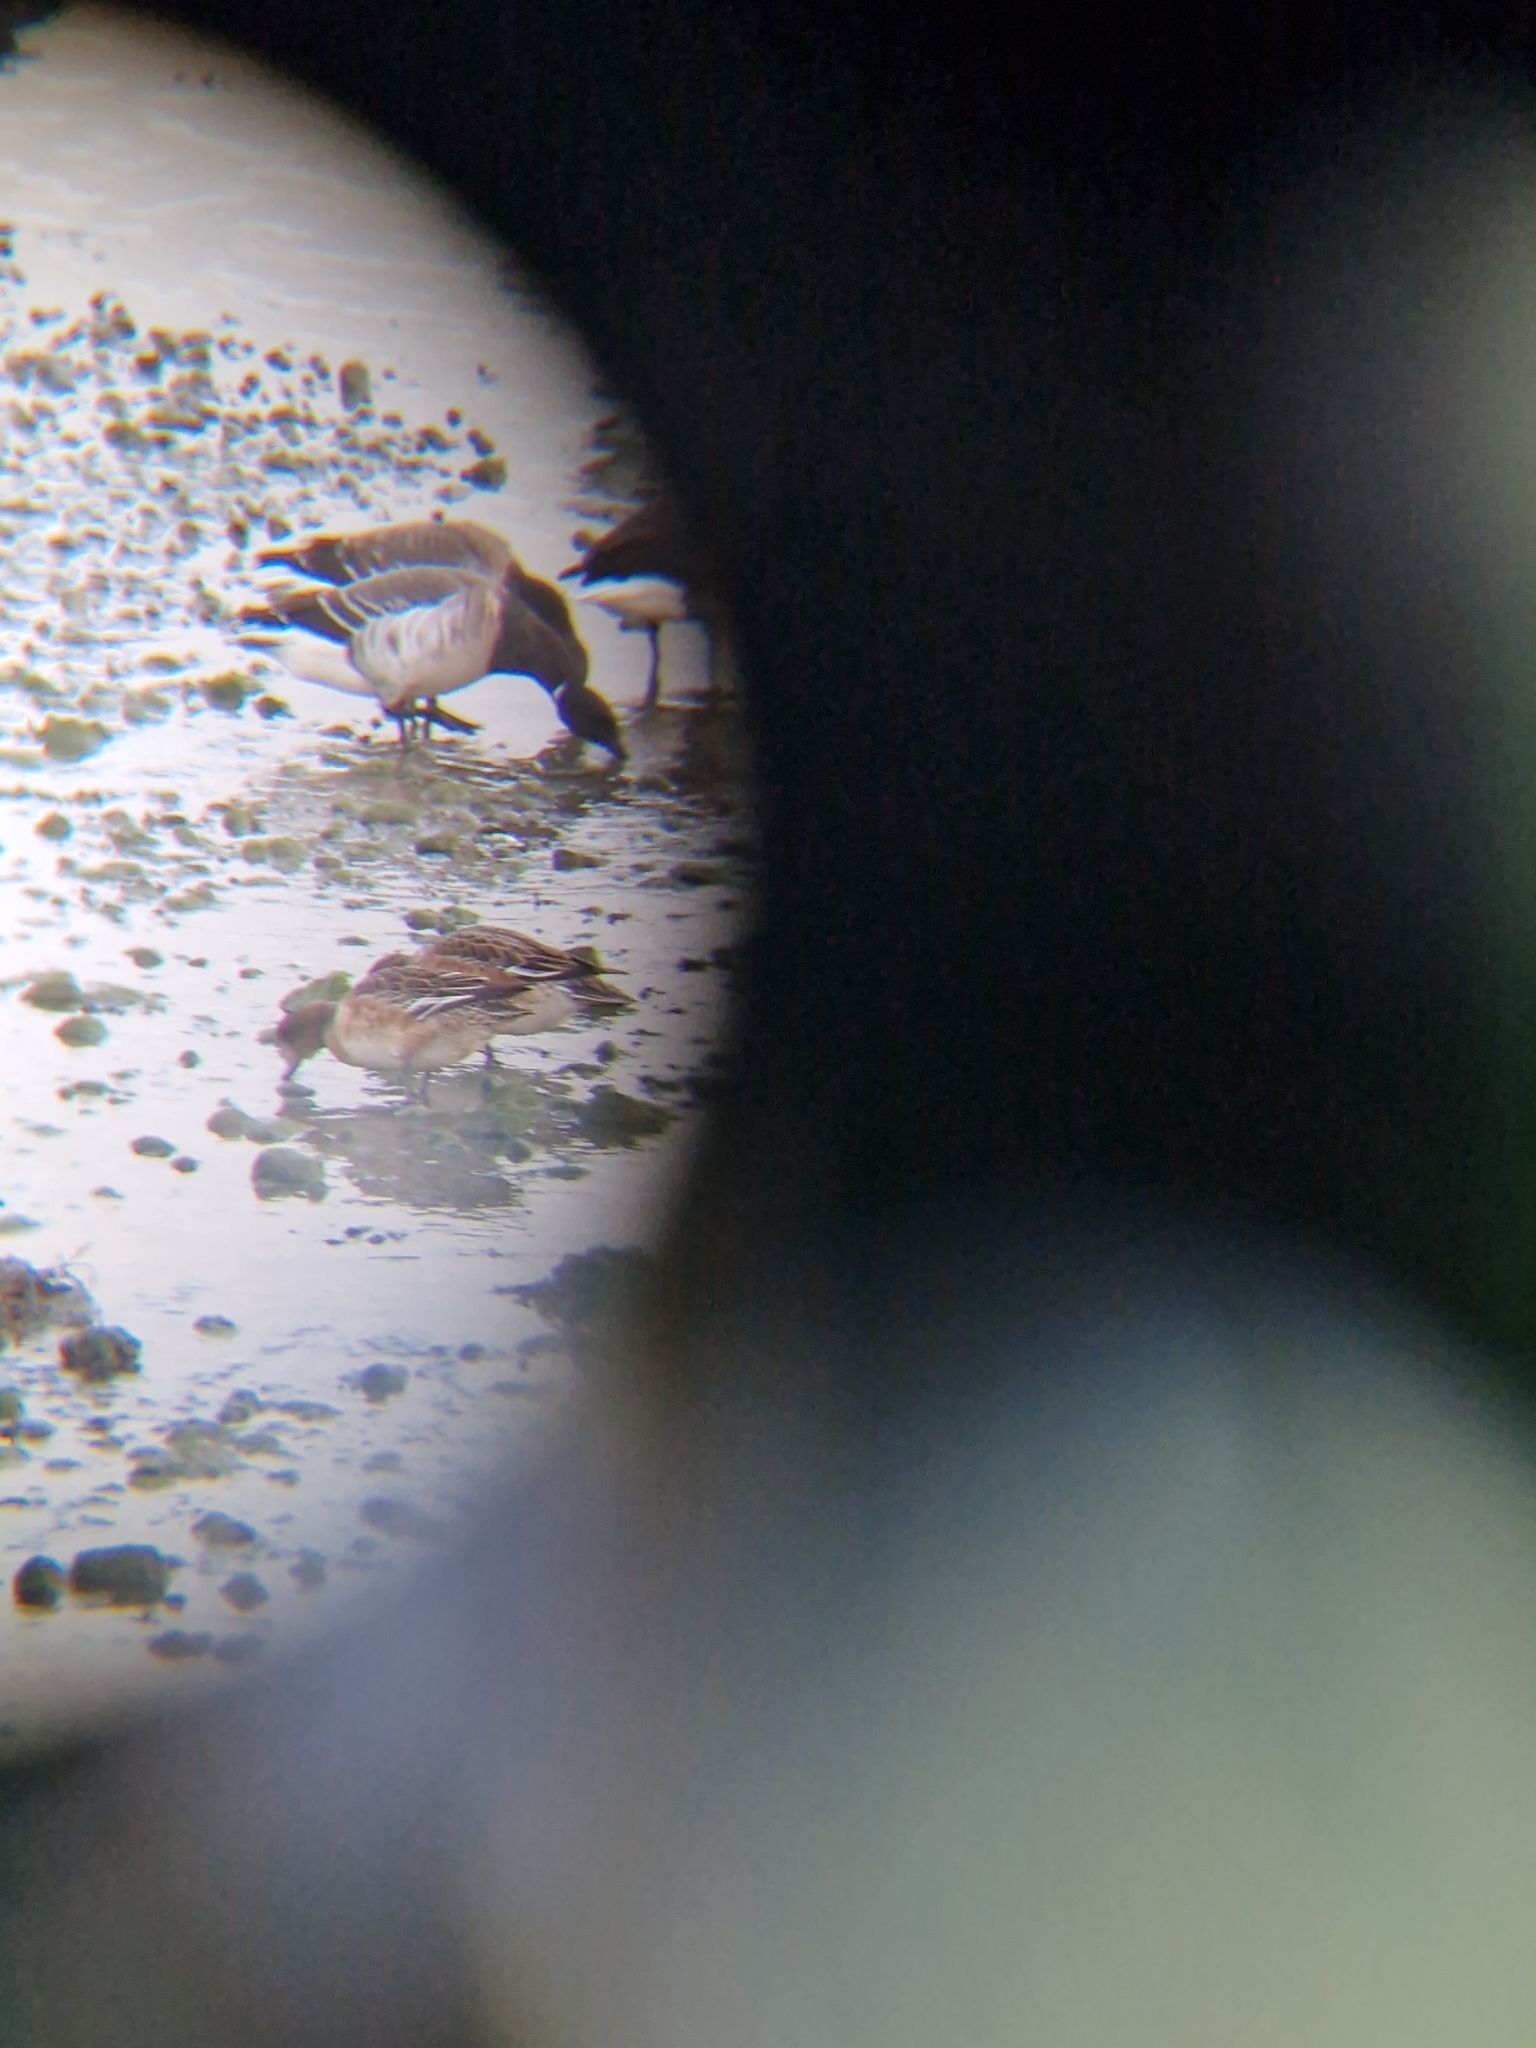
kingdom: Animalia
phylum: Chordata
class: Aves
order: Anseriformes
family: Anatidae
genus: Mareca
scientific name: Mareca penelope
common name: Eurasian wigeon
